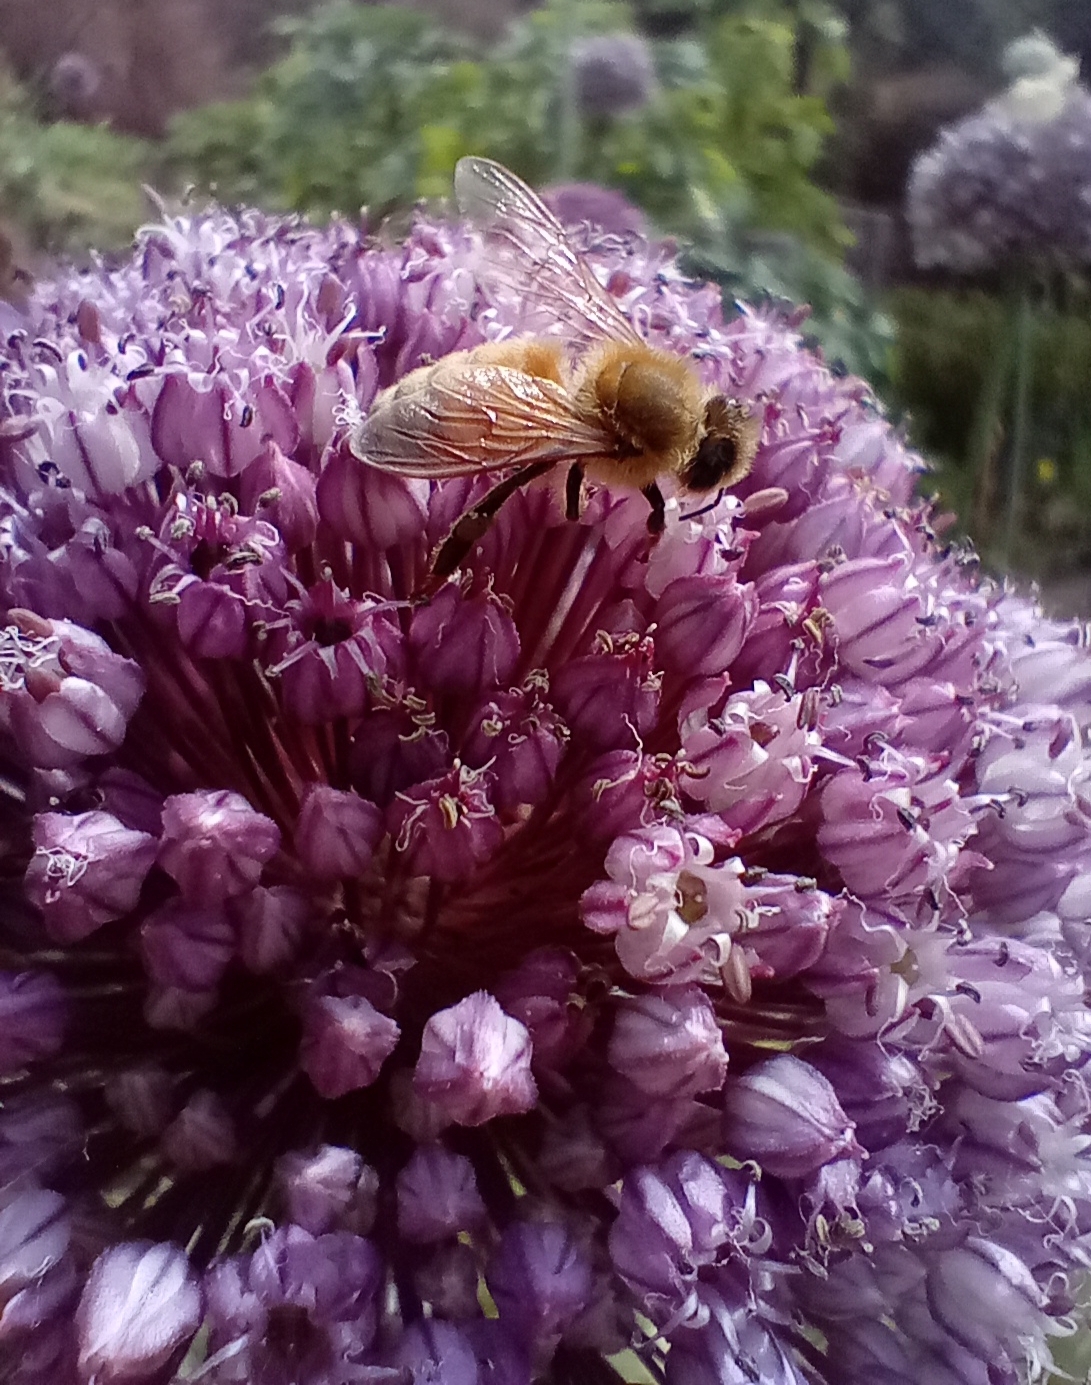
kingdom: Animalia
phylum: Arthropoda
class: Insecta
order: Hymenoptera
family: Apidae
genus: Apis
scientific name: Apis mellifera
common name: Honey bee
